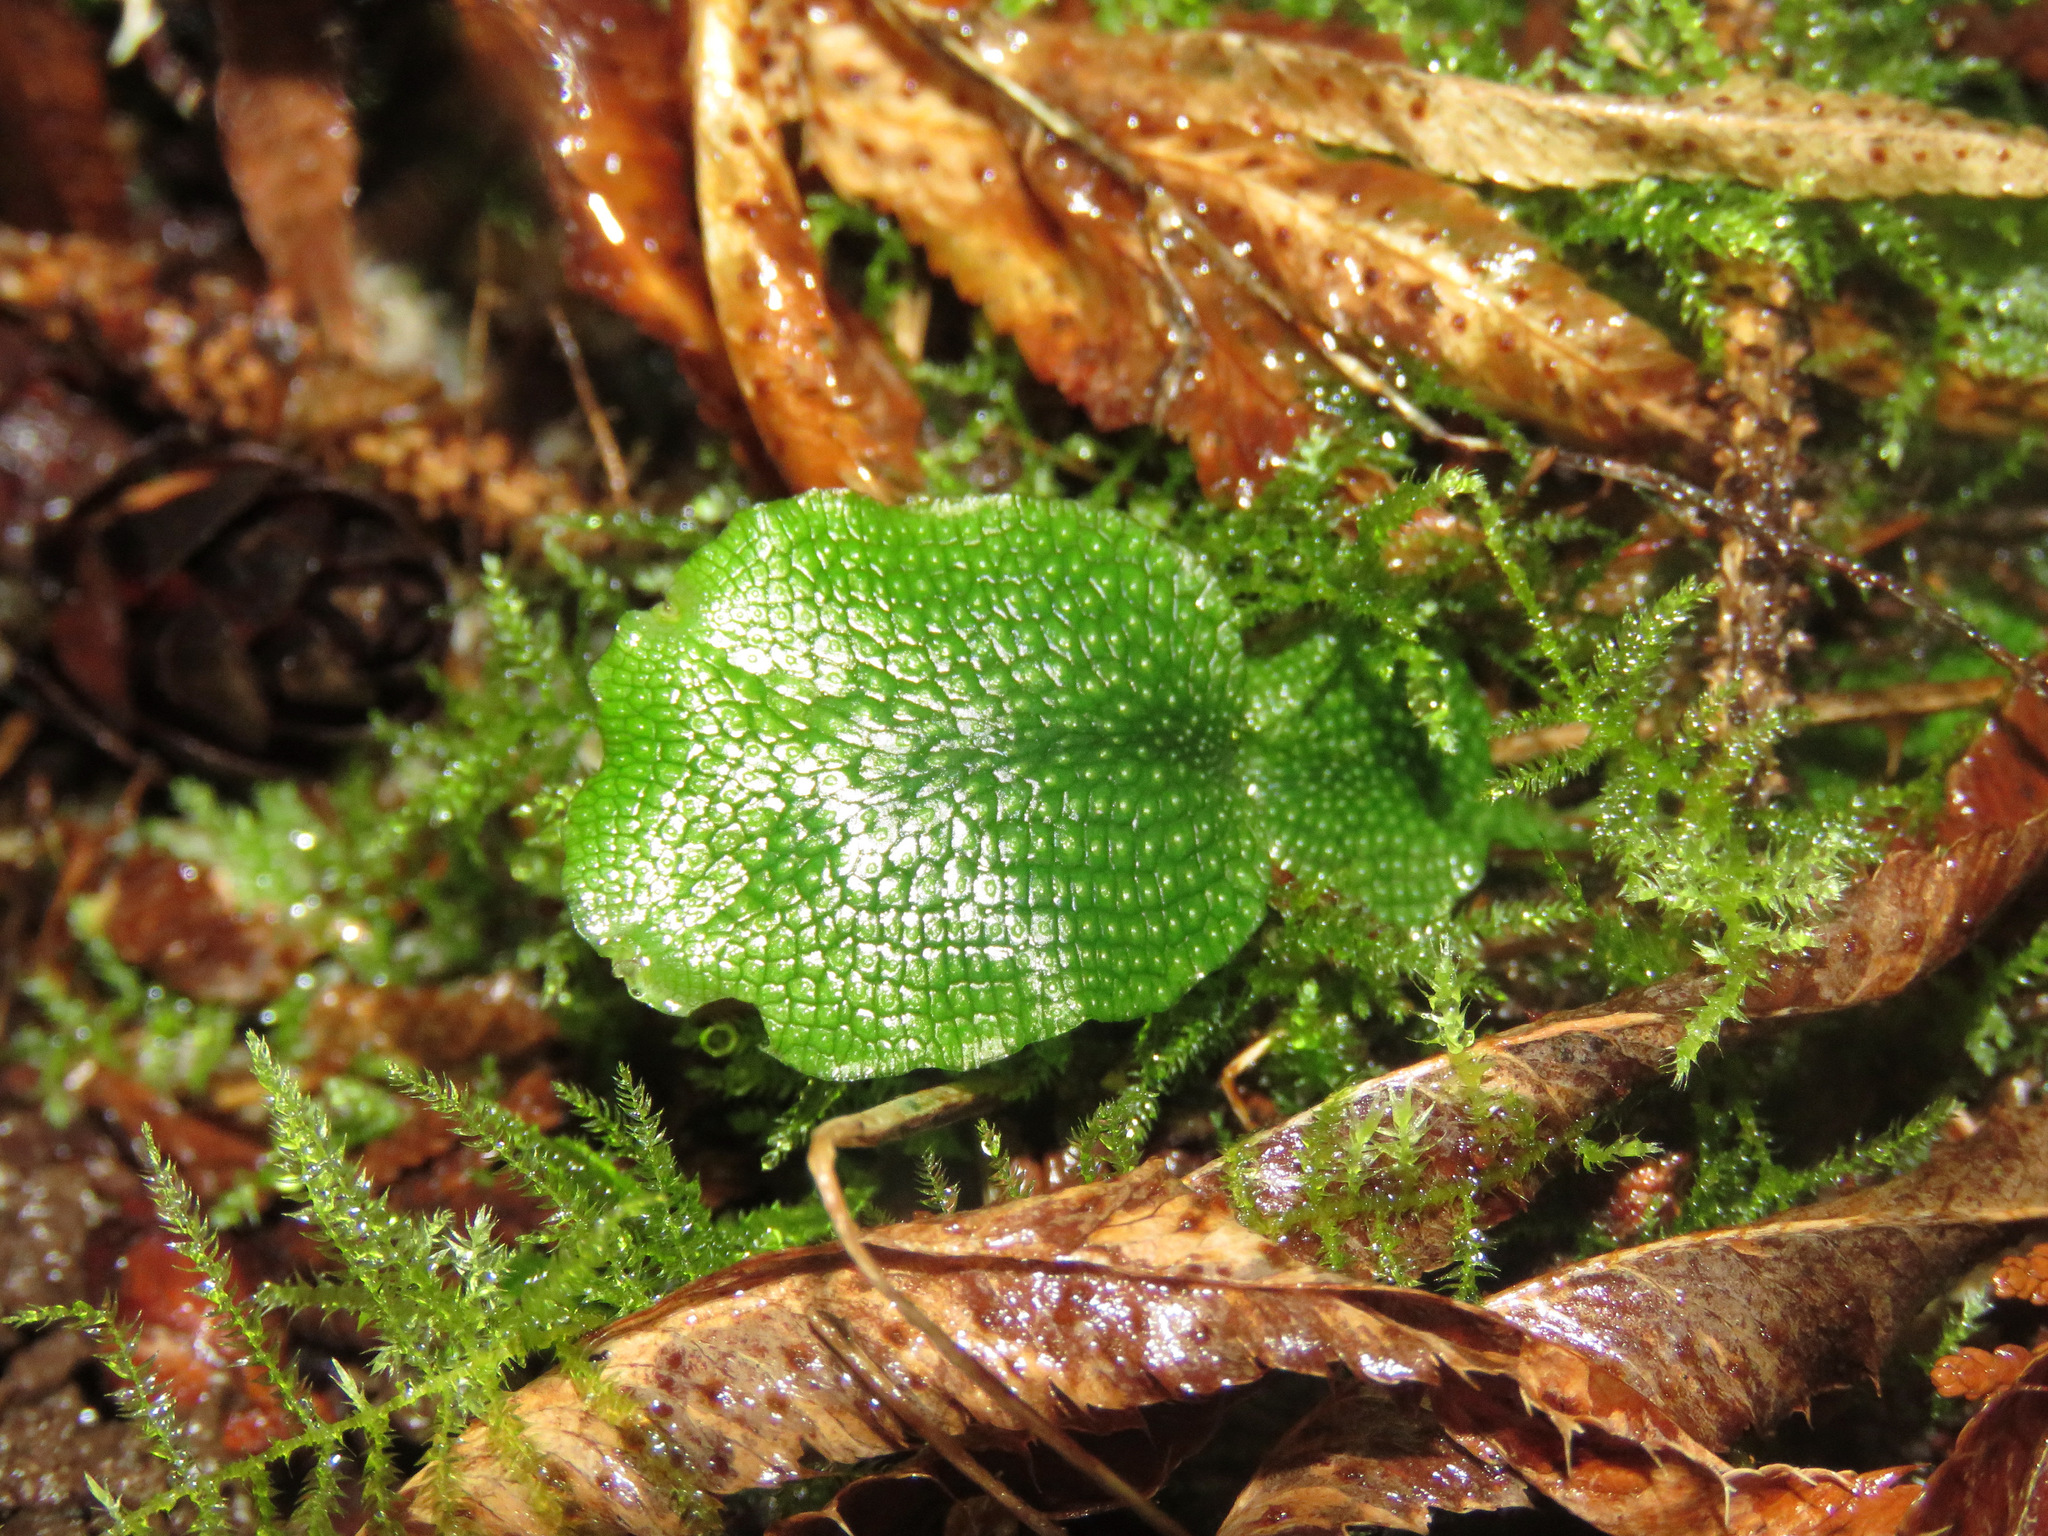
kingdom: Plantae
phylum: Marchantiophyta
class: Marchantiopsida
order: Marchantiales
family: Conocephalaceae
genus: Conocephalum
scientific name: Conocephalum salebrosum
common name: Cat-tongue liverwort
